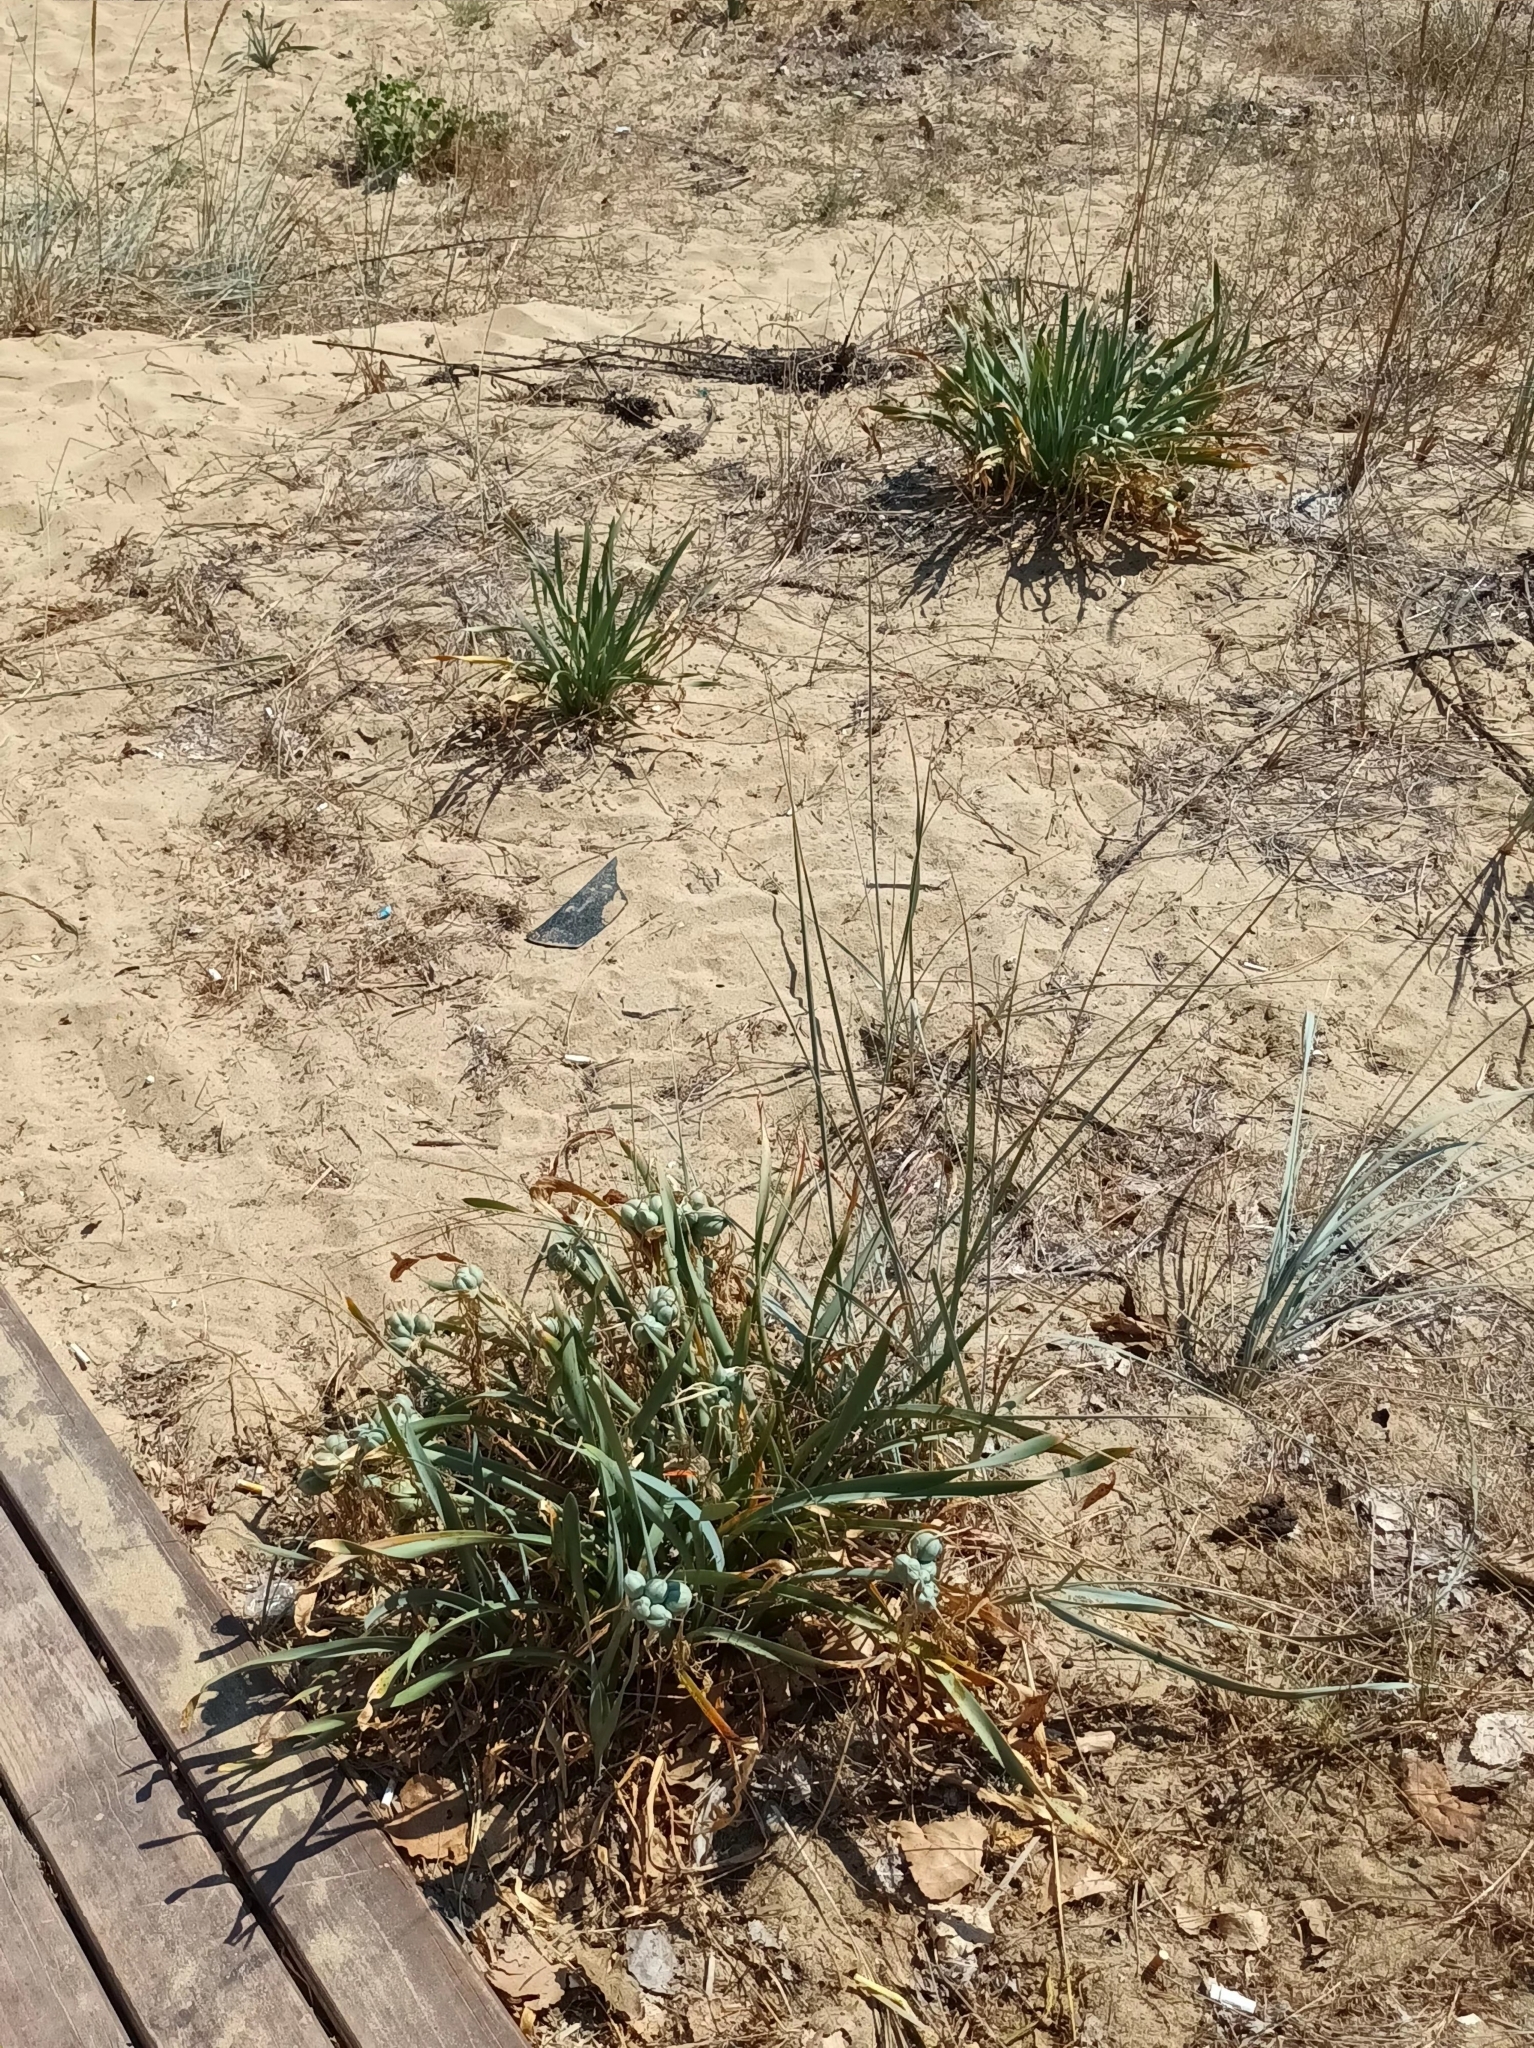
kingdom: Plantae
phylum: Tracheophyta
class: Liliopsida
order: Asparagales
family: Amaryllidaceae
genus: Pancratium
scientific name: Pancratium maritimum
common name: Sea-daffodil
